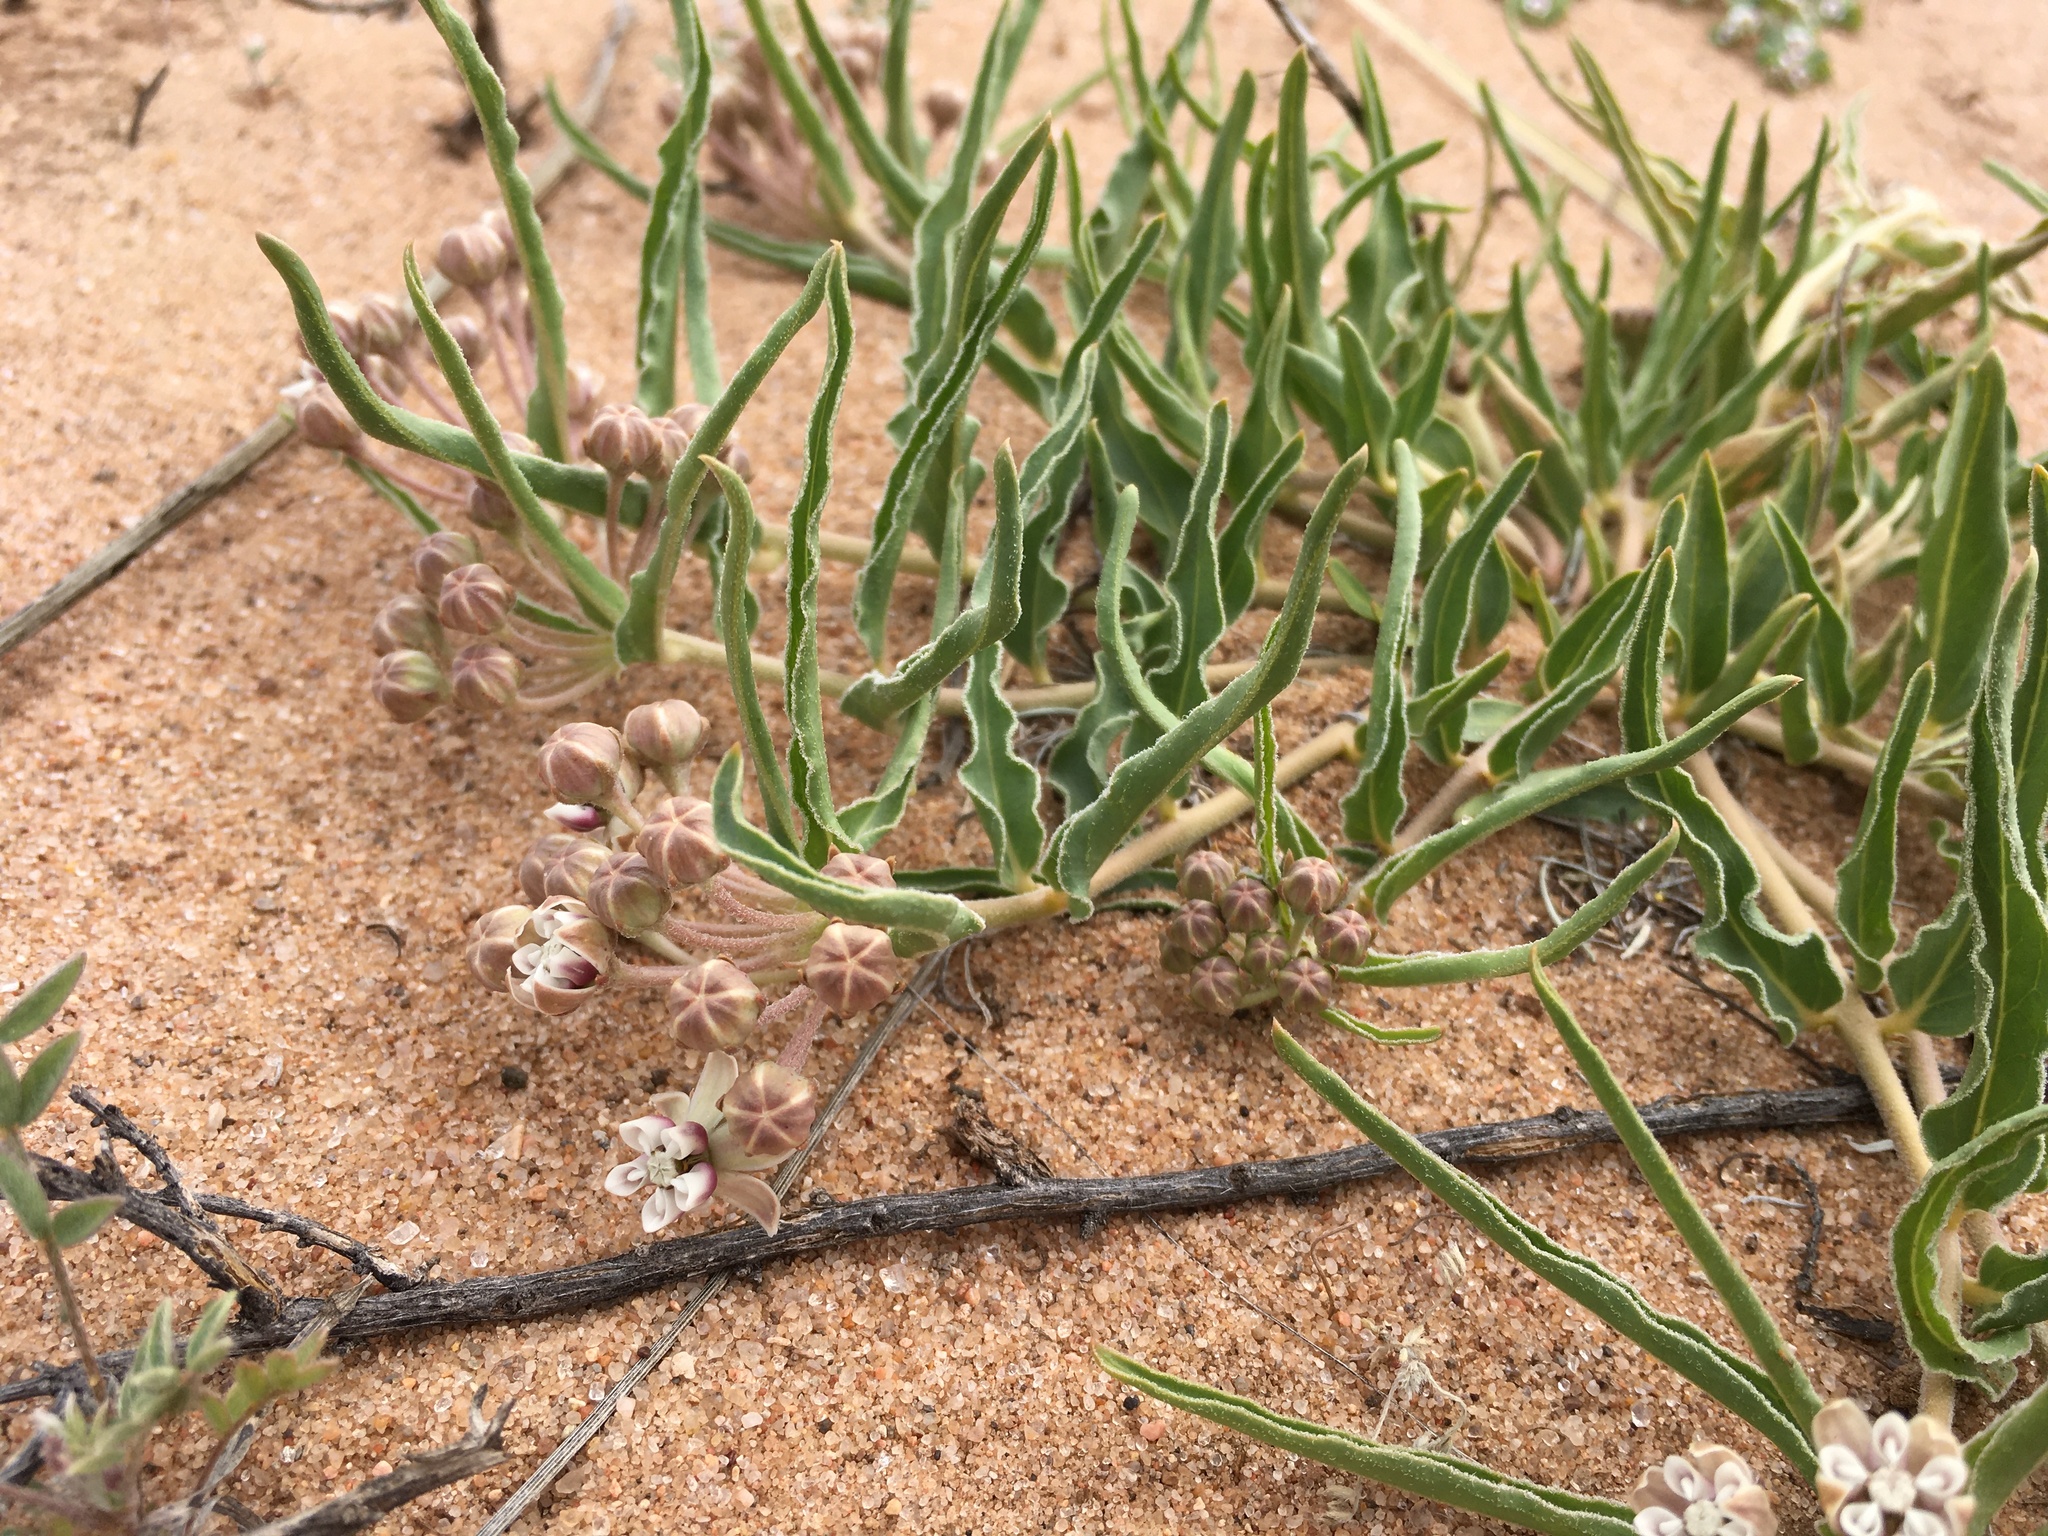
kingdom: Plantae
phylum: Tracheophyta
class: Magnoliopsida
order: Gentianales
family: Apocynaceae
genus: Asclepias
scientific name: Asclepias involucrata
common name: Dwarf milkweed
